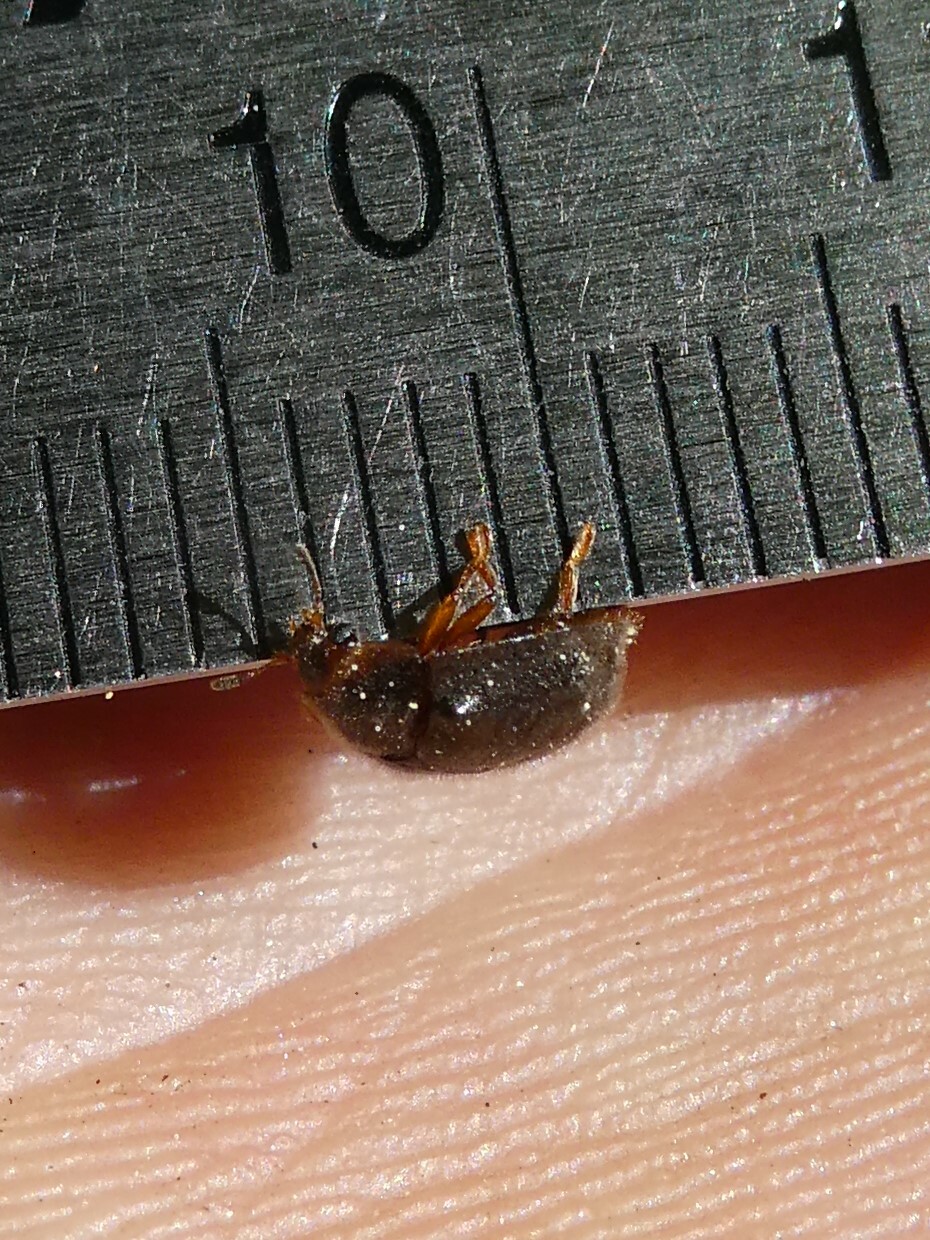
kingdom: Animalia
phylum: Arthropoda
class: Insecta
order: Coleoptera
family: Trogossitidae
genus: Thymalus
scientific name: Thymalus marginicollis
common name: Bark-gnawing beetle
